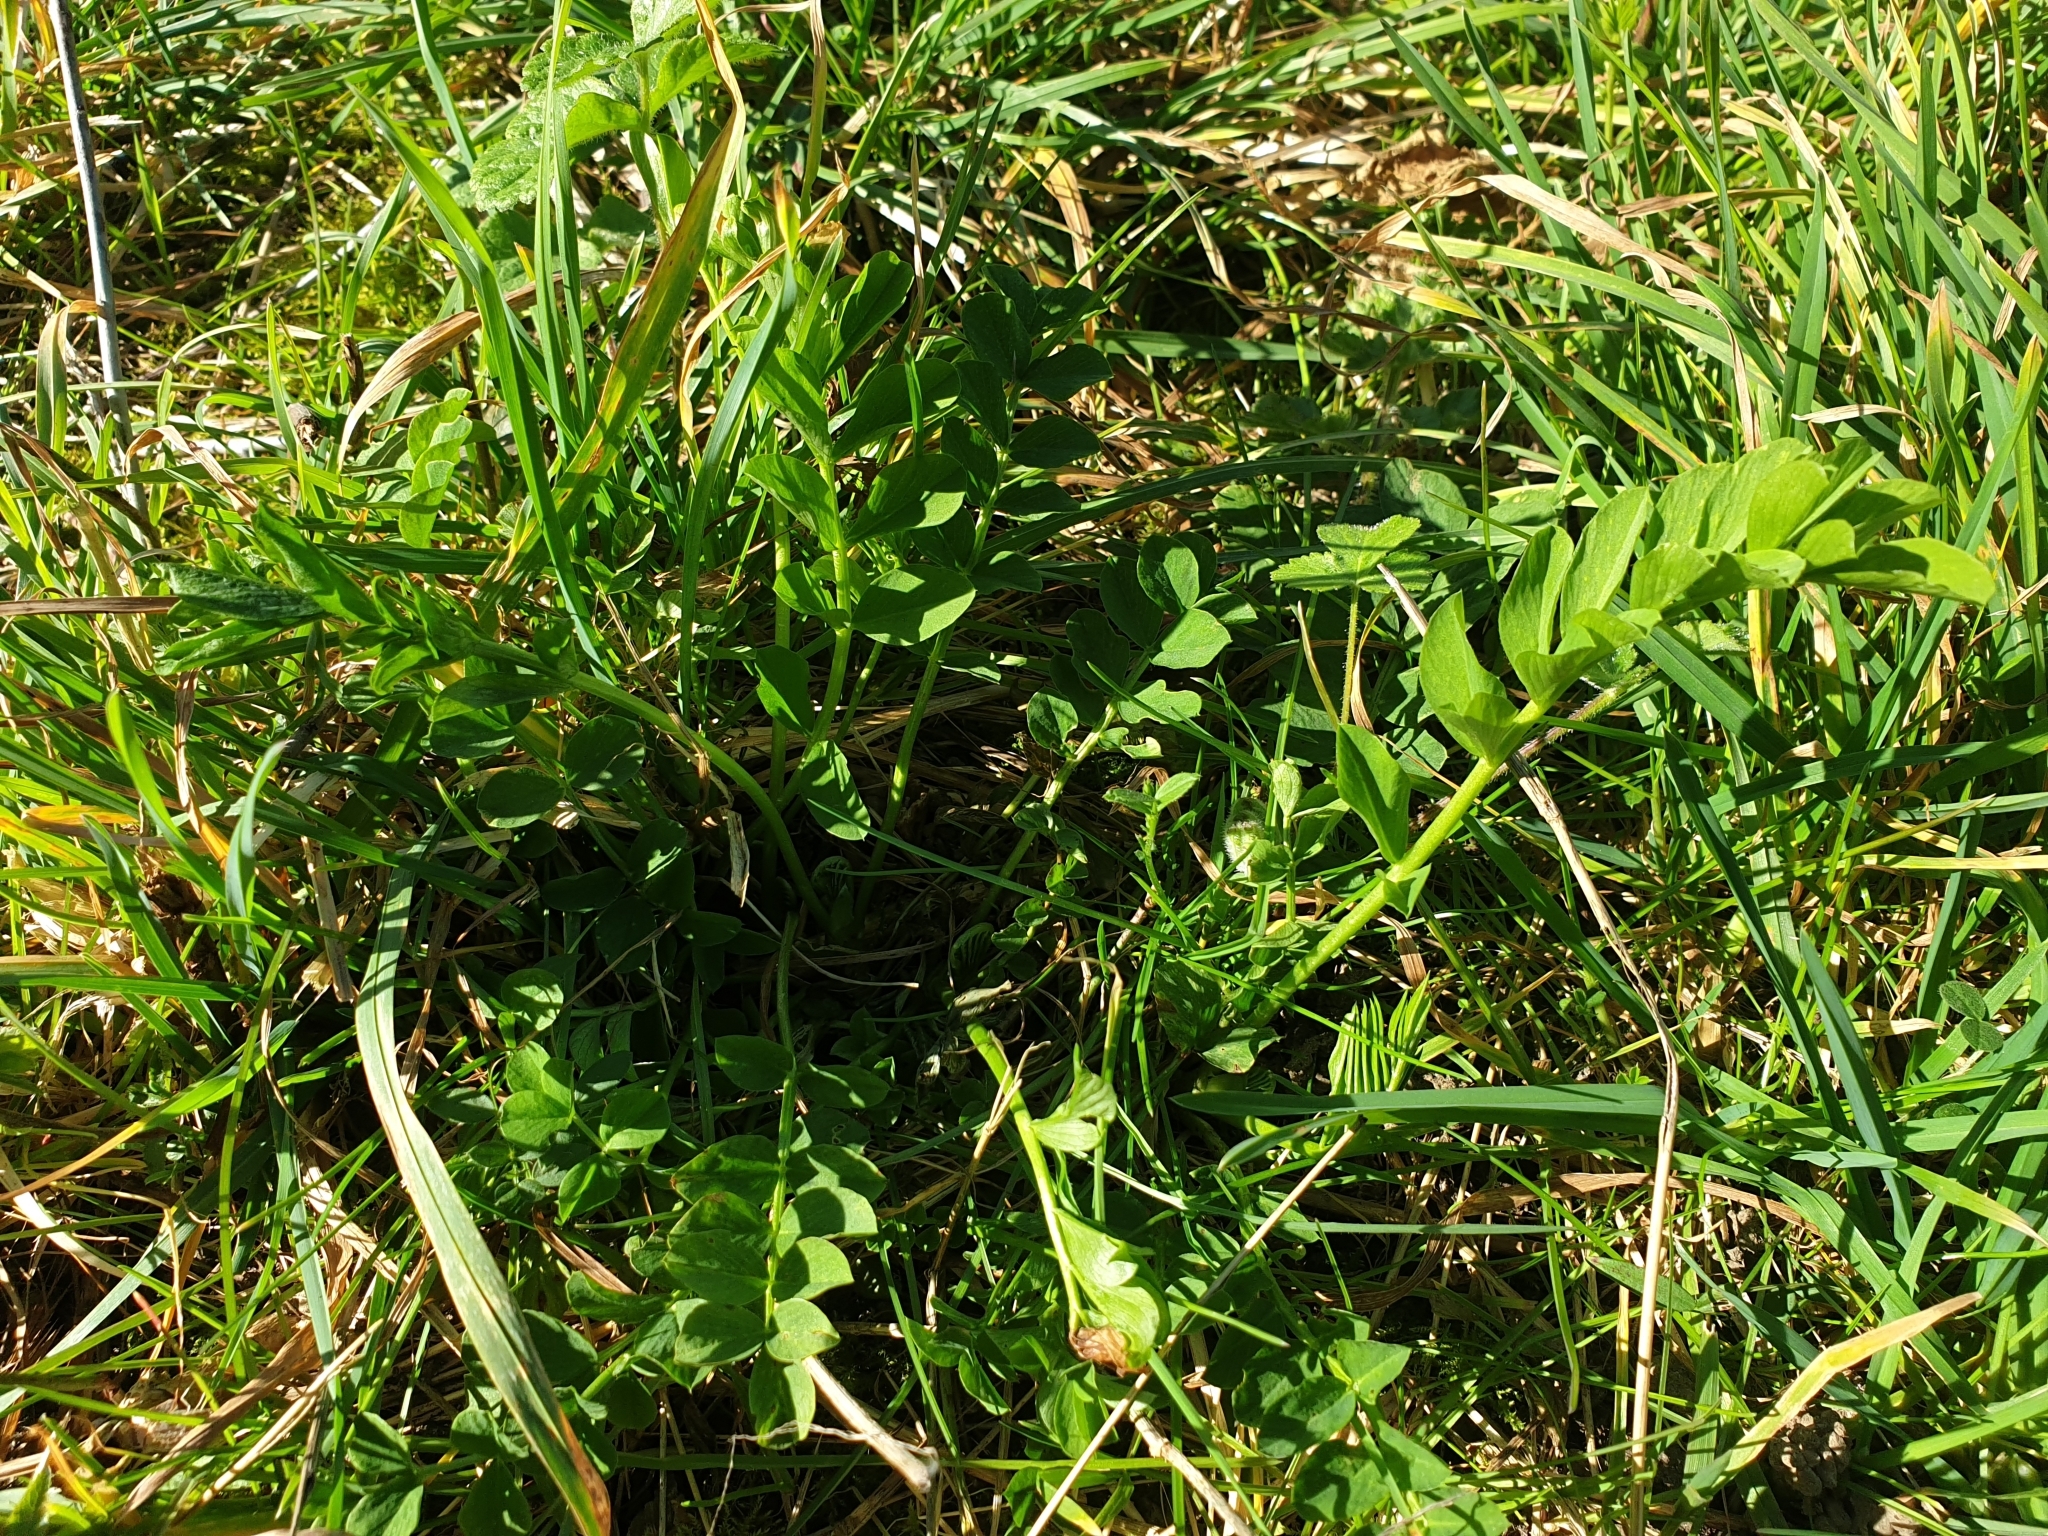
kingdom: Plantae
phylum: Tracheophyta
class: Magnoliopsida
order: Fabales
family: Fabaceae
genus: Galega
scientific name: Galega officinalis
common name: Goat's-rue
